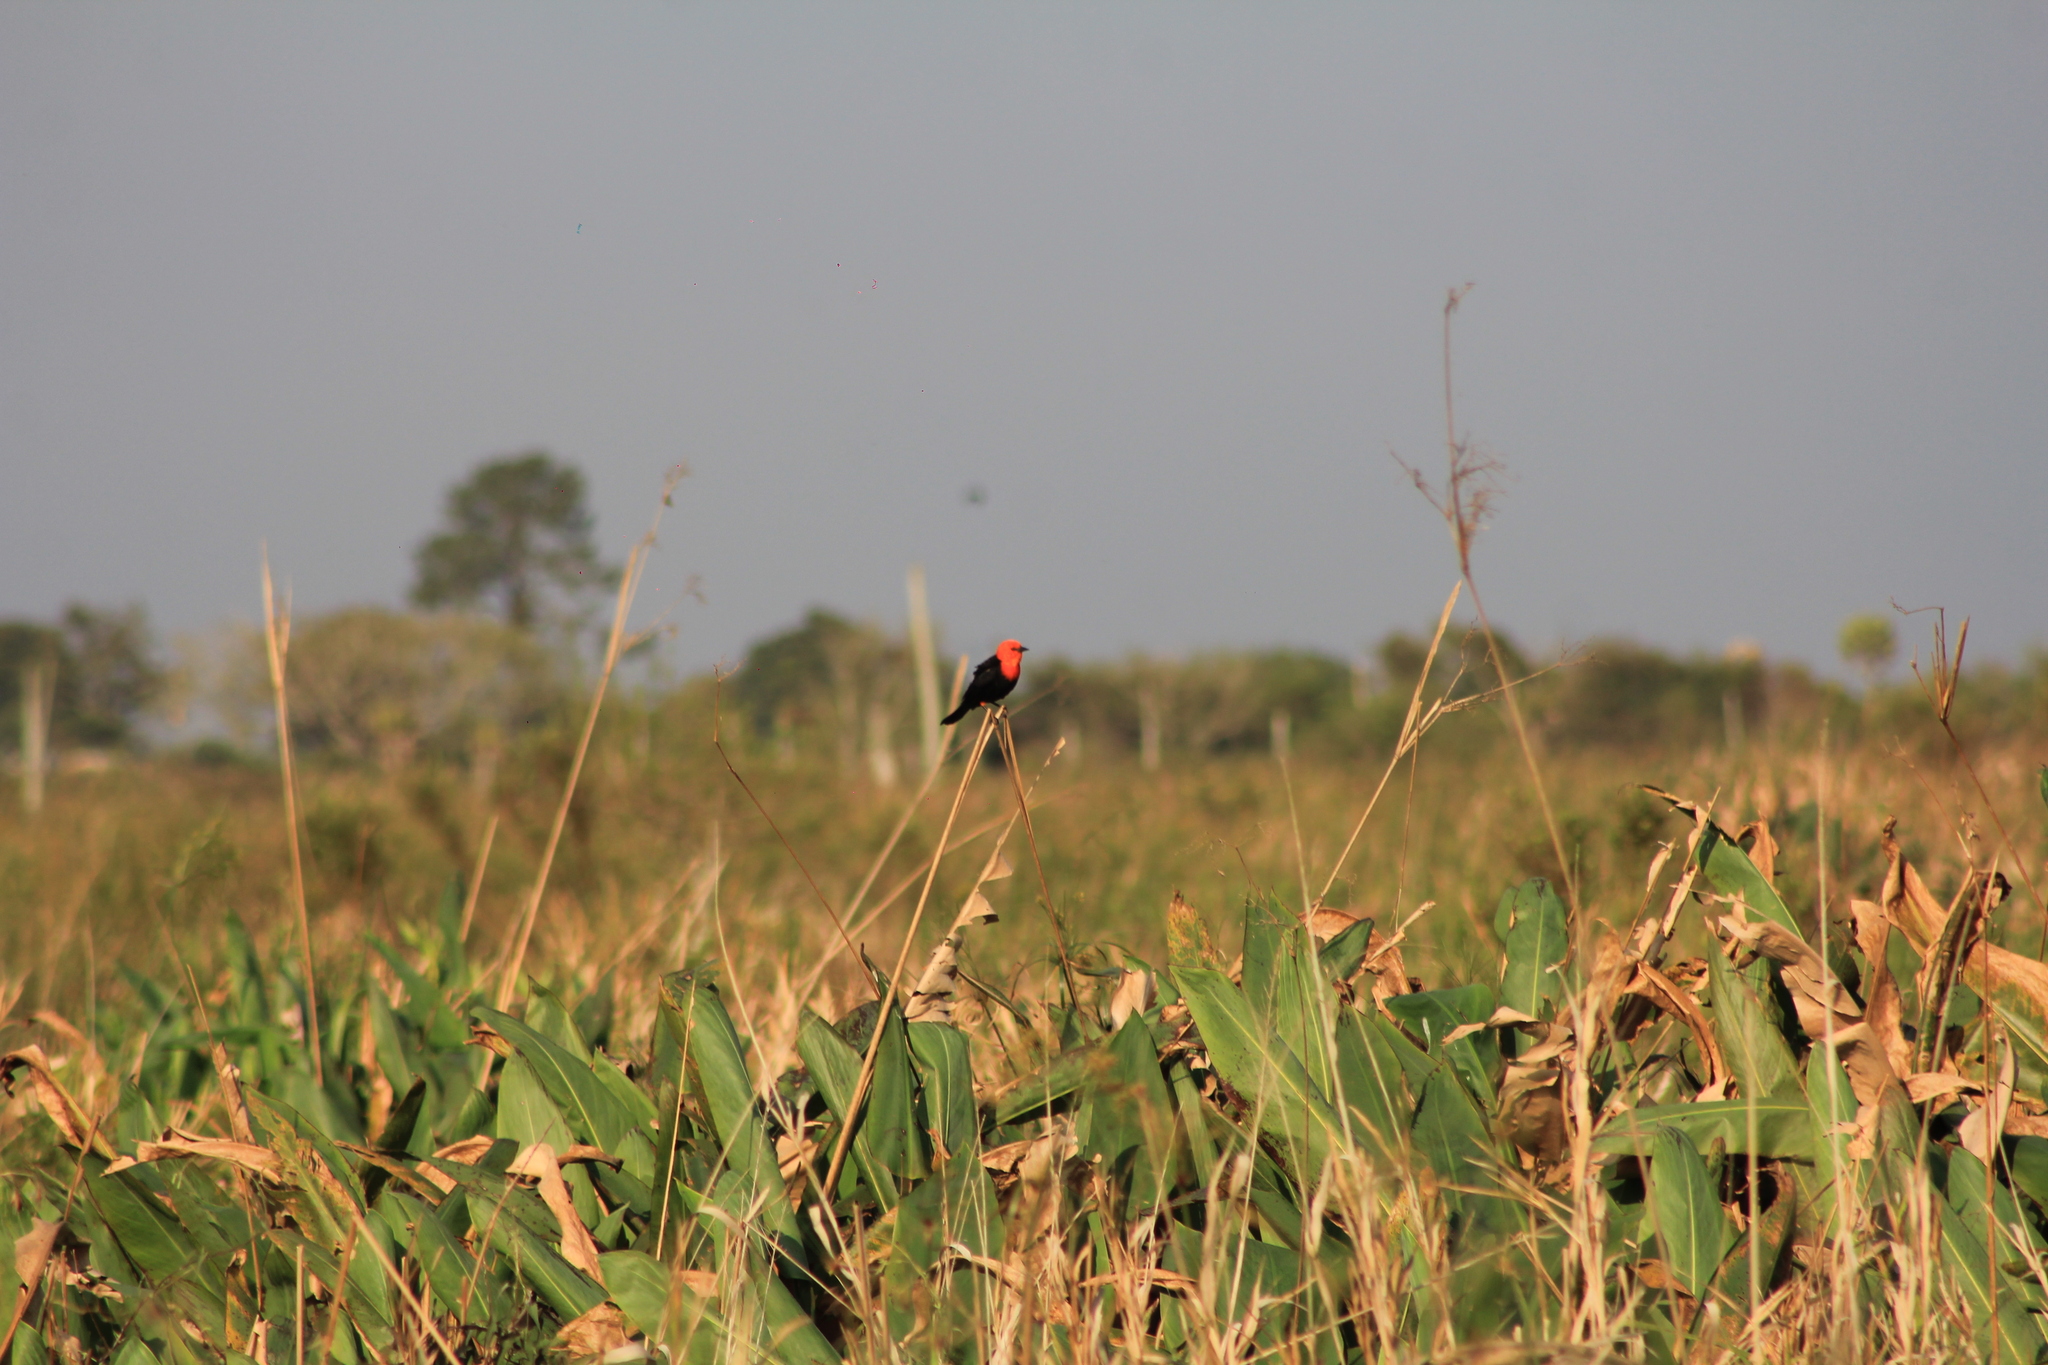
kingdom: Animalia
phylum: Chordata
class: Aves
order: Passeriformes
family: Icteridae
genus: Amblyramphus
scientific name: Amblyramphus holosericeus
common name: Scarlet-headed blackbird
